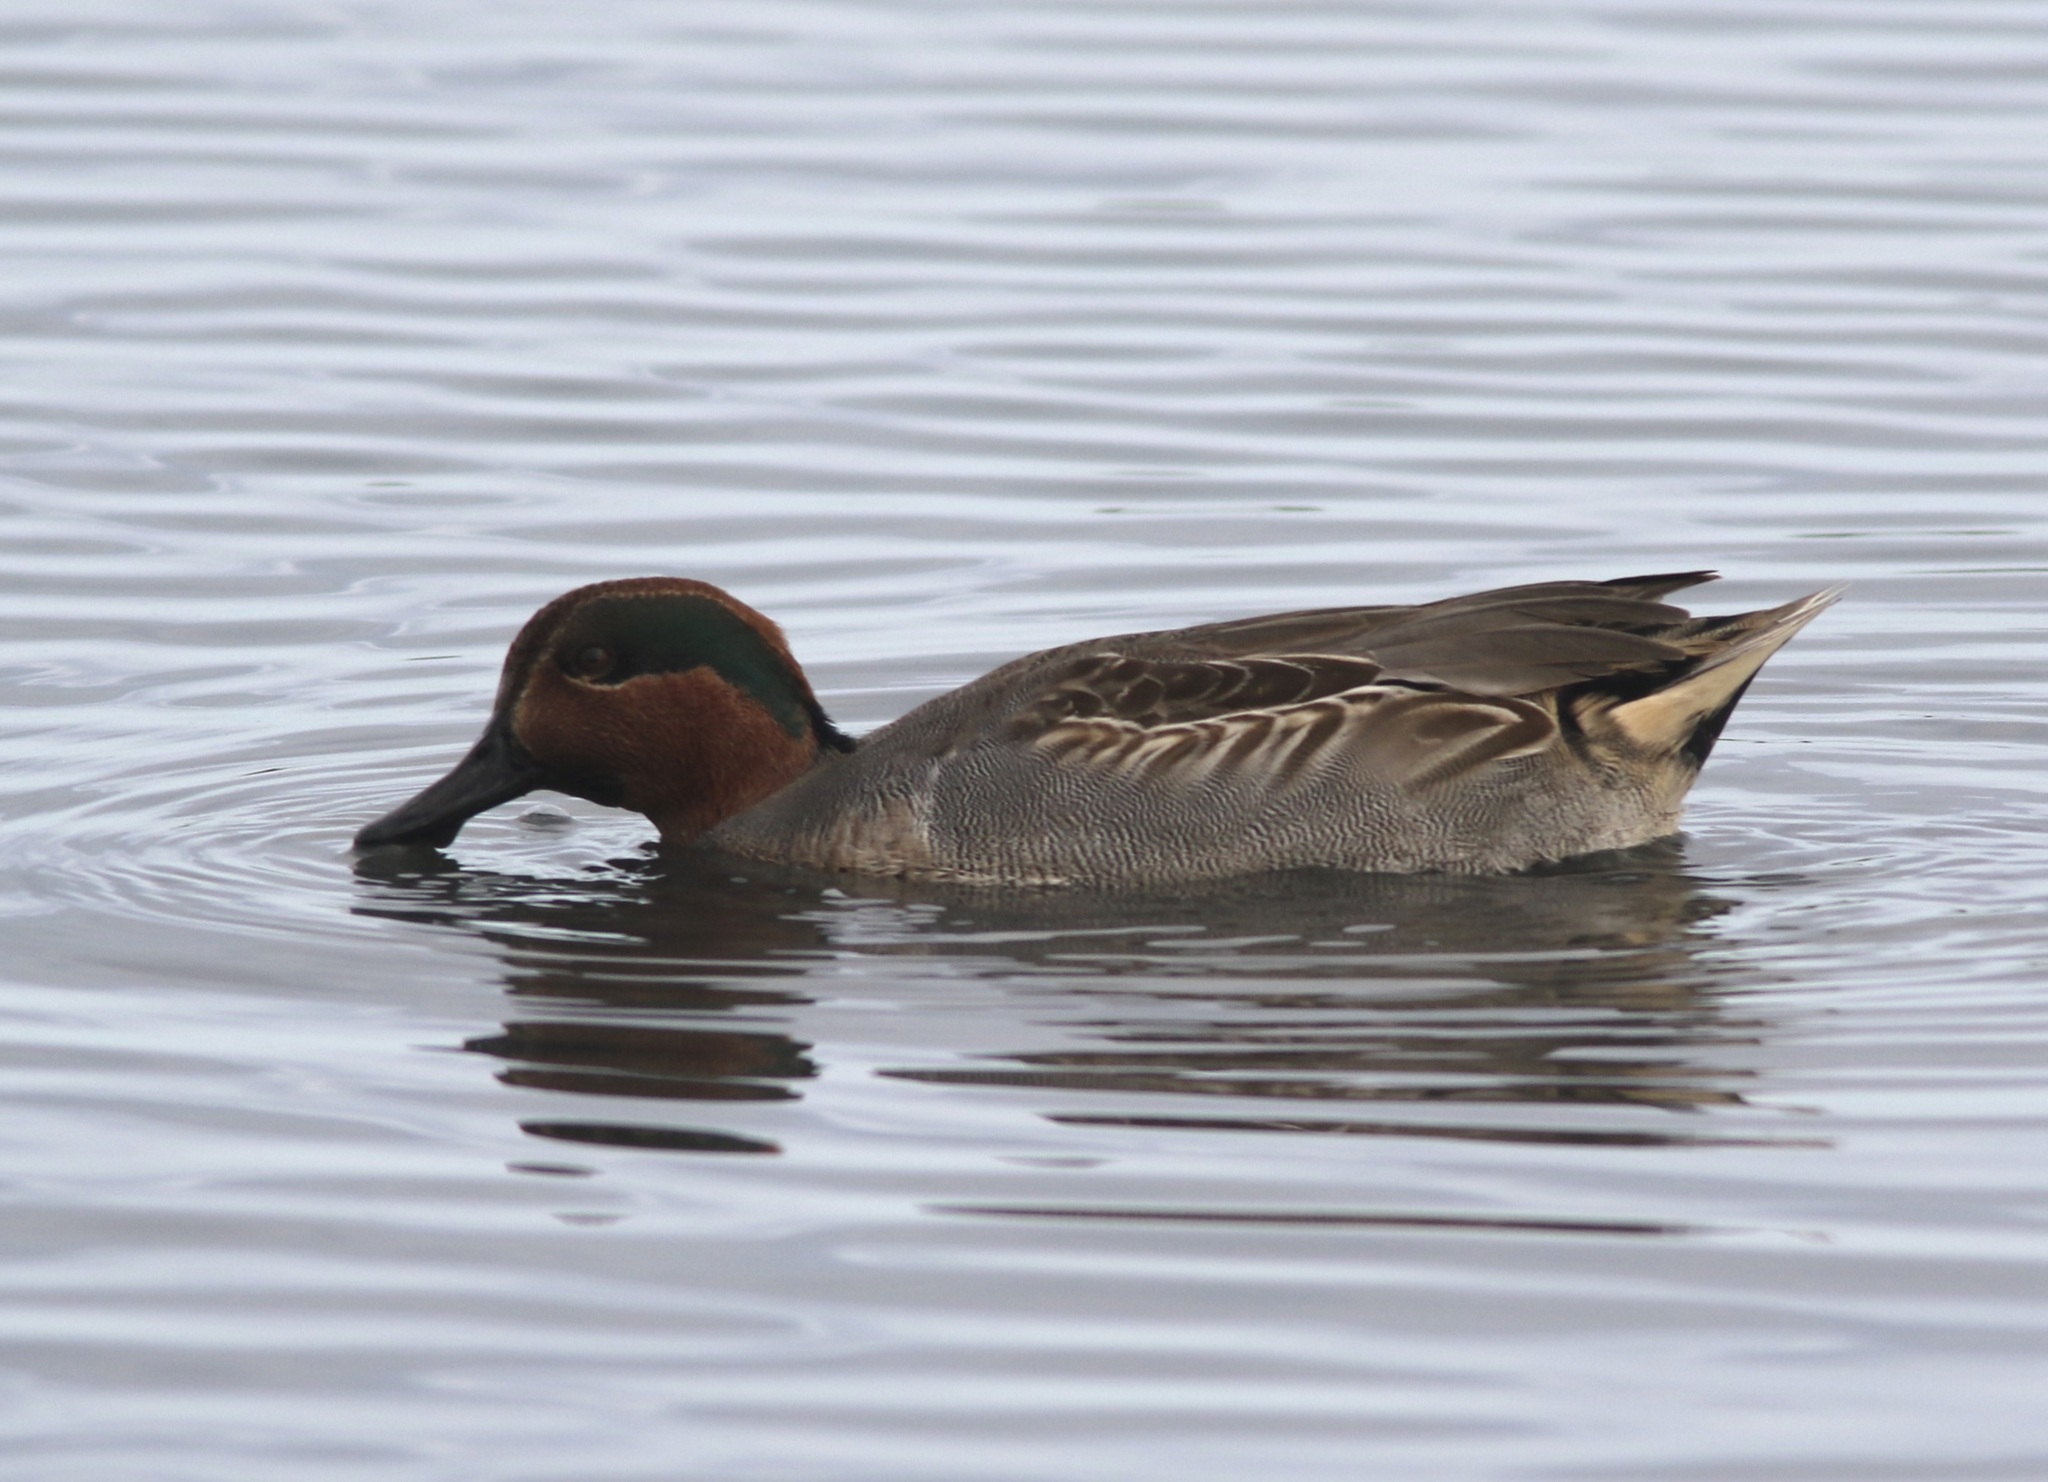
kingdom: Animalia
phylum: Chordata
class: Aves
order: Anseriformes
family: Anatidae
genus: Anas
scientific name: Anas crecca
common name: Eurasian teal
